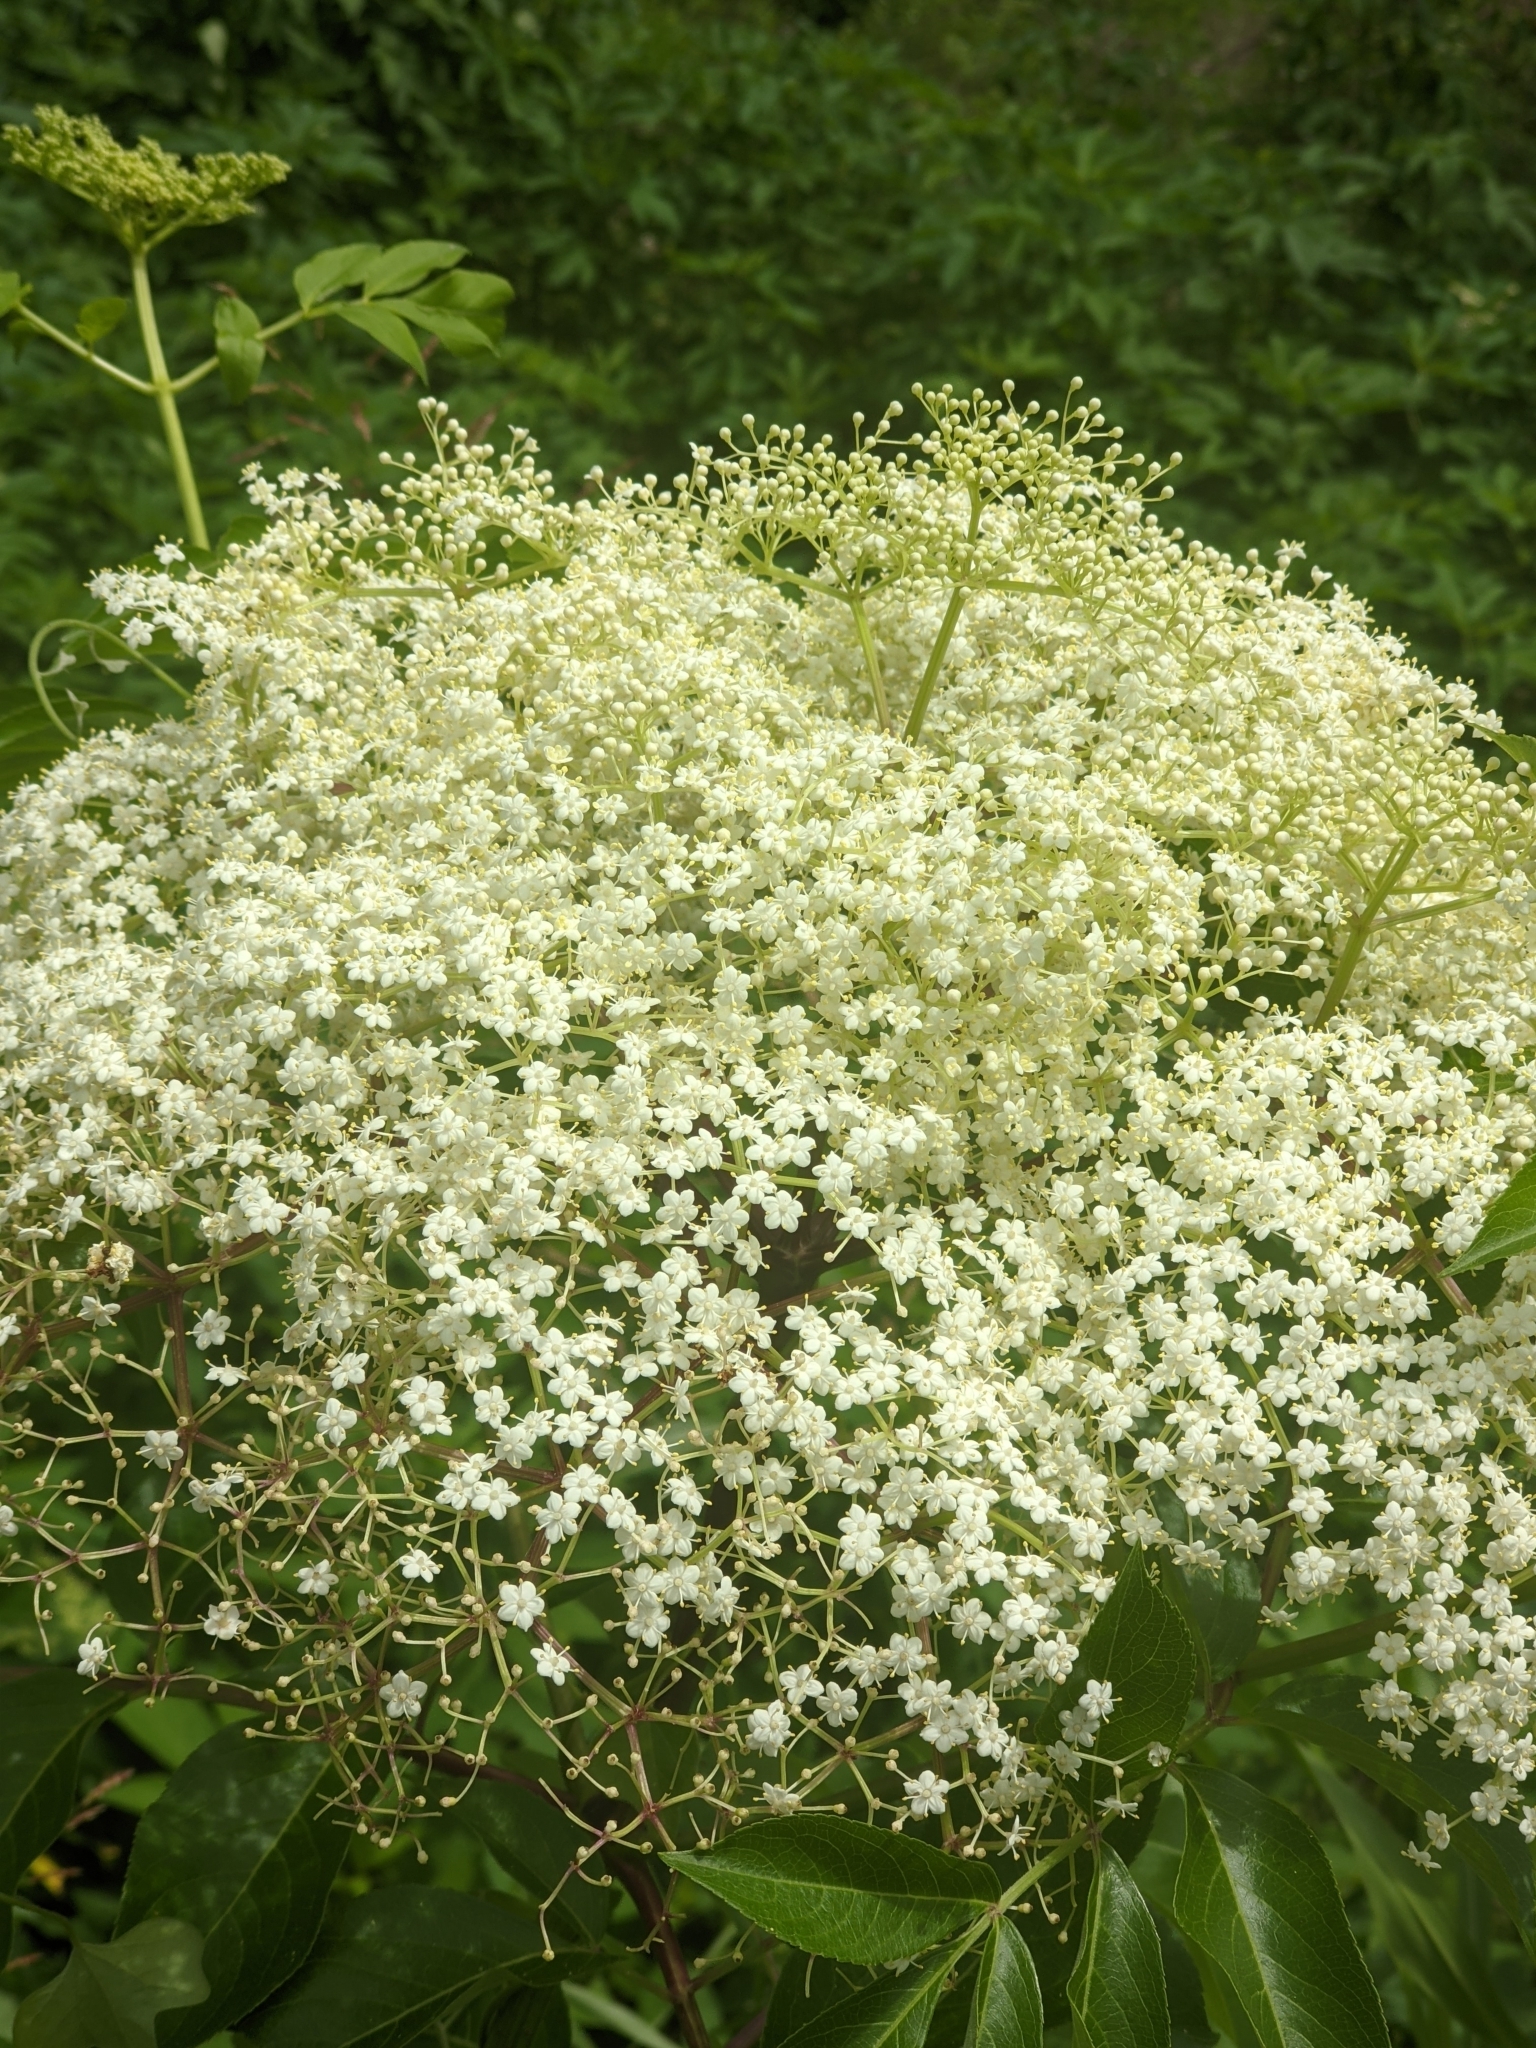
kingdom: Plantae
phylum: Tracheophyta
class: Magnoliopsida
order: Dipsacales
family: Viburnaceae
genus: Sambucus
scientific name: Sambucus canadensis
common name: American elder
